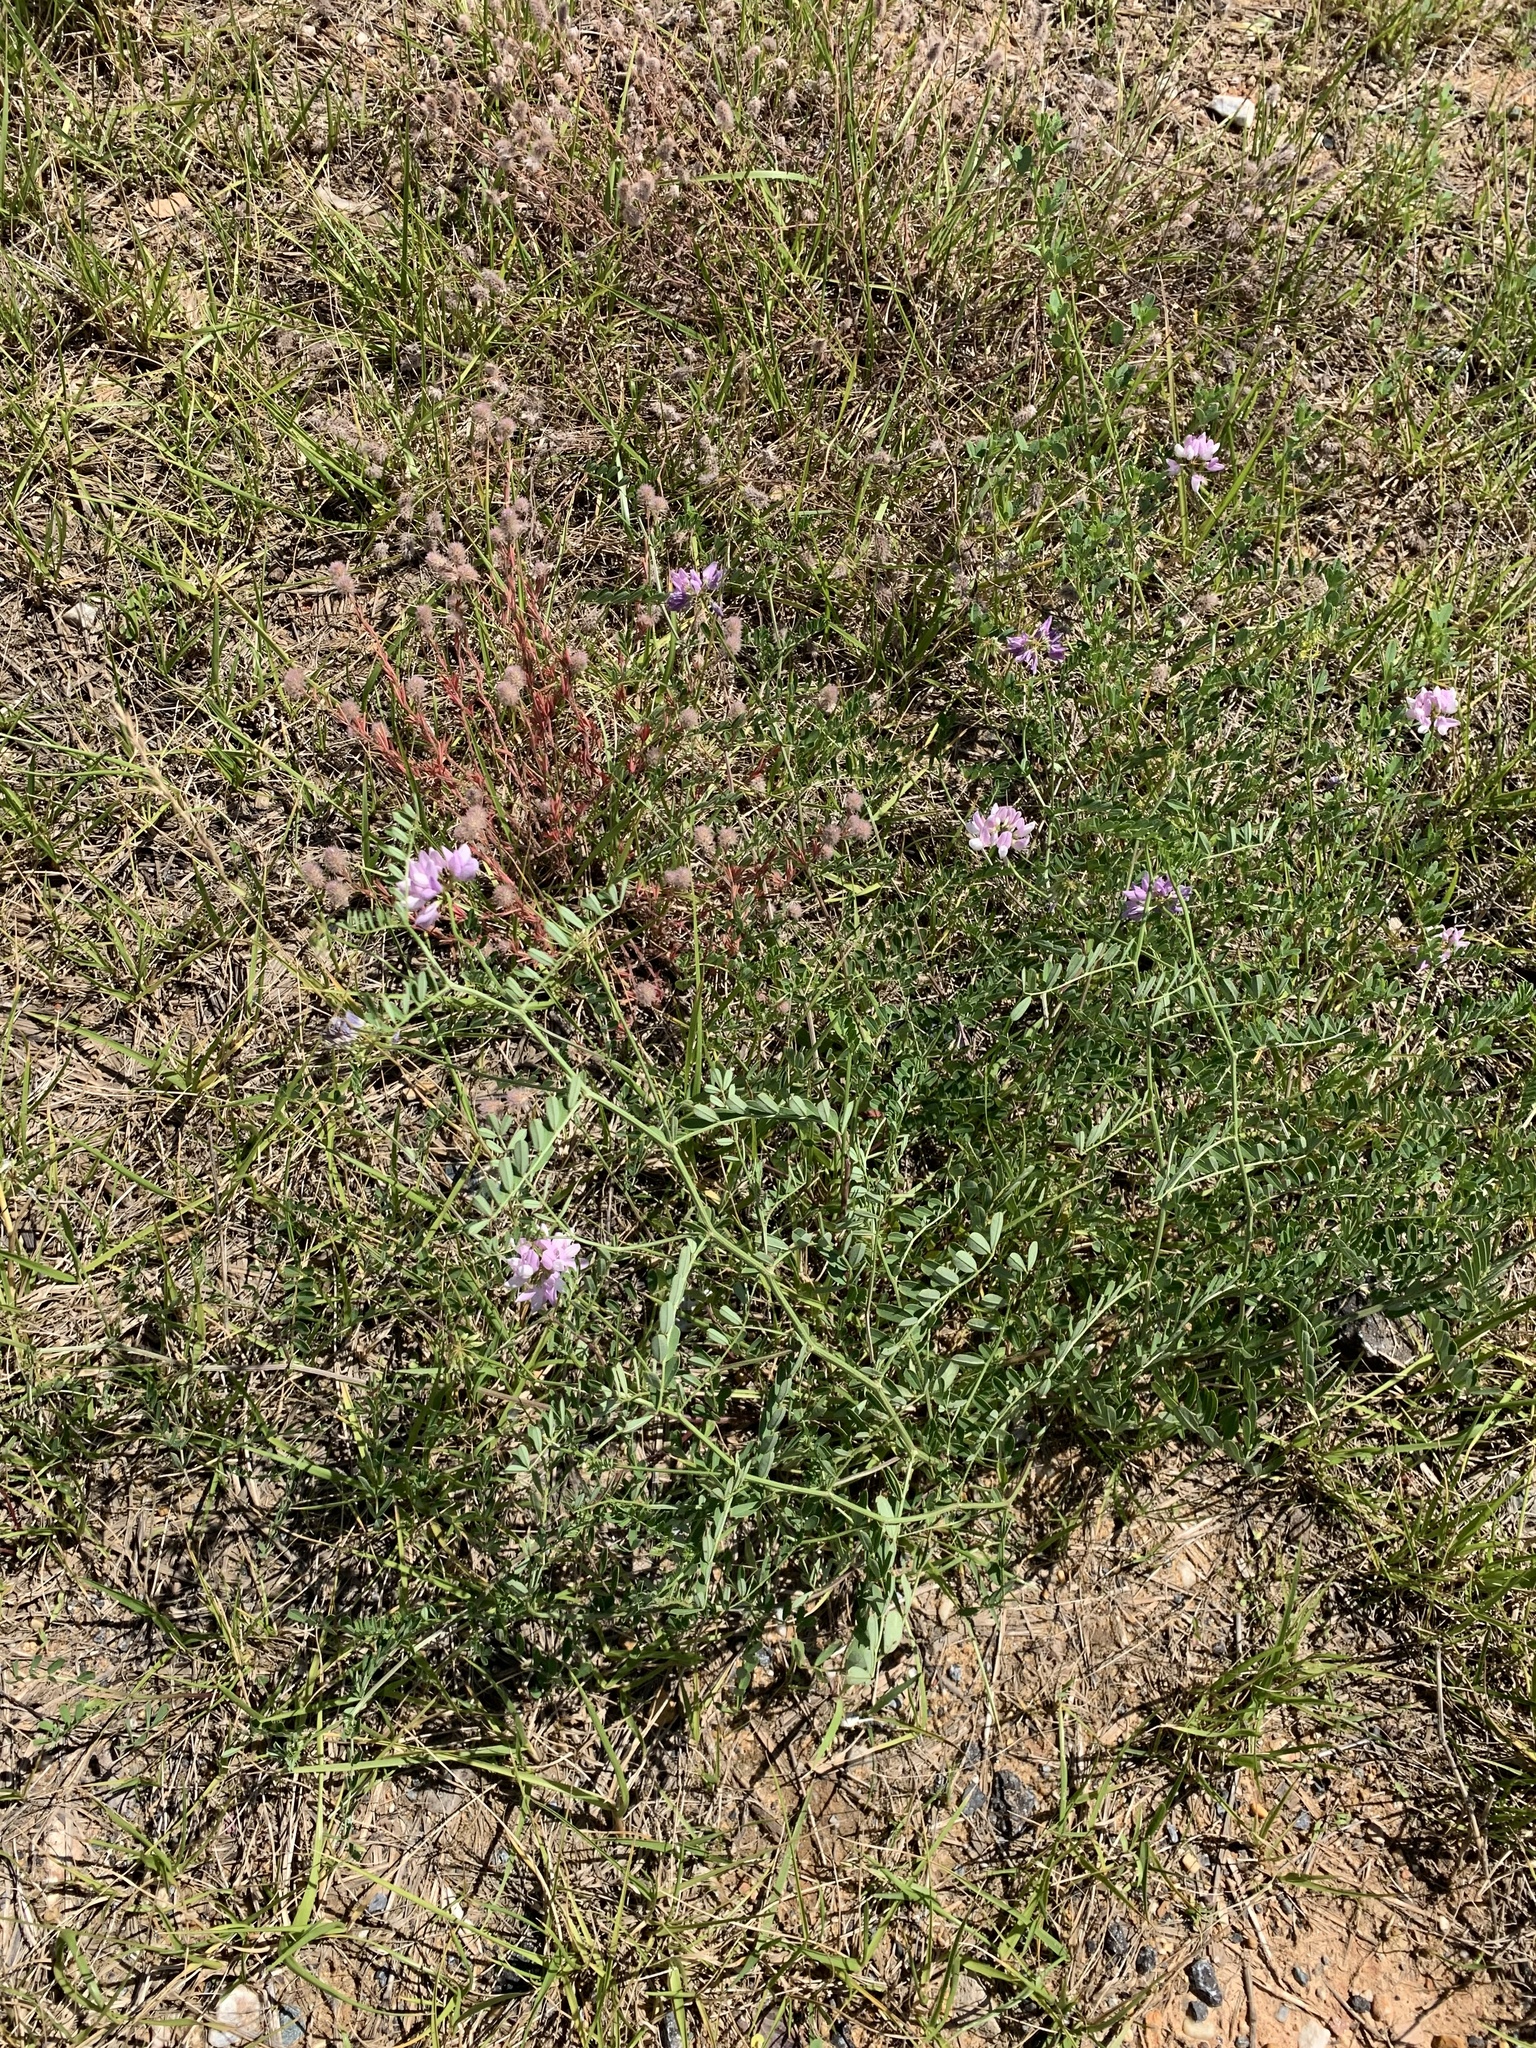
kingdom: Plantae
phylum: Tracheophyta
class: Magnoliopsida
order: Fabales
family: Fabaceae
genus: Coronilla
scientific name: Coronilla varia
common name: Crownvetch
